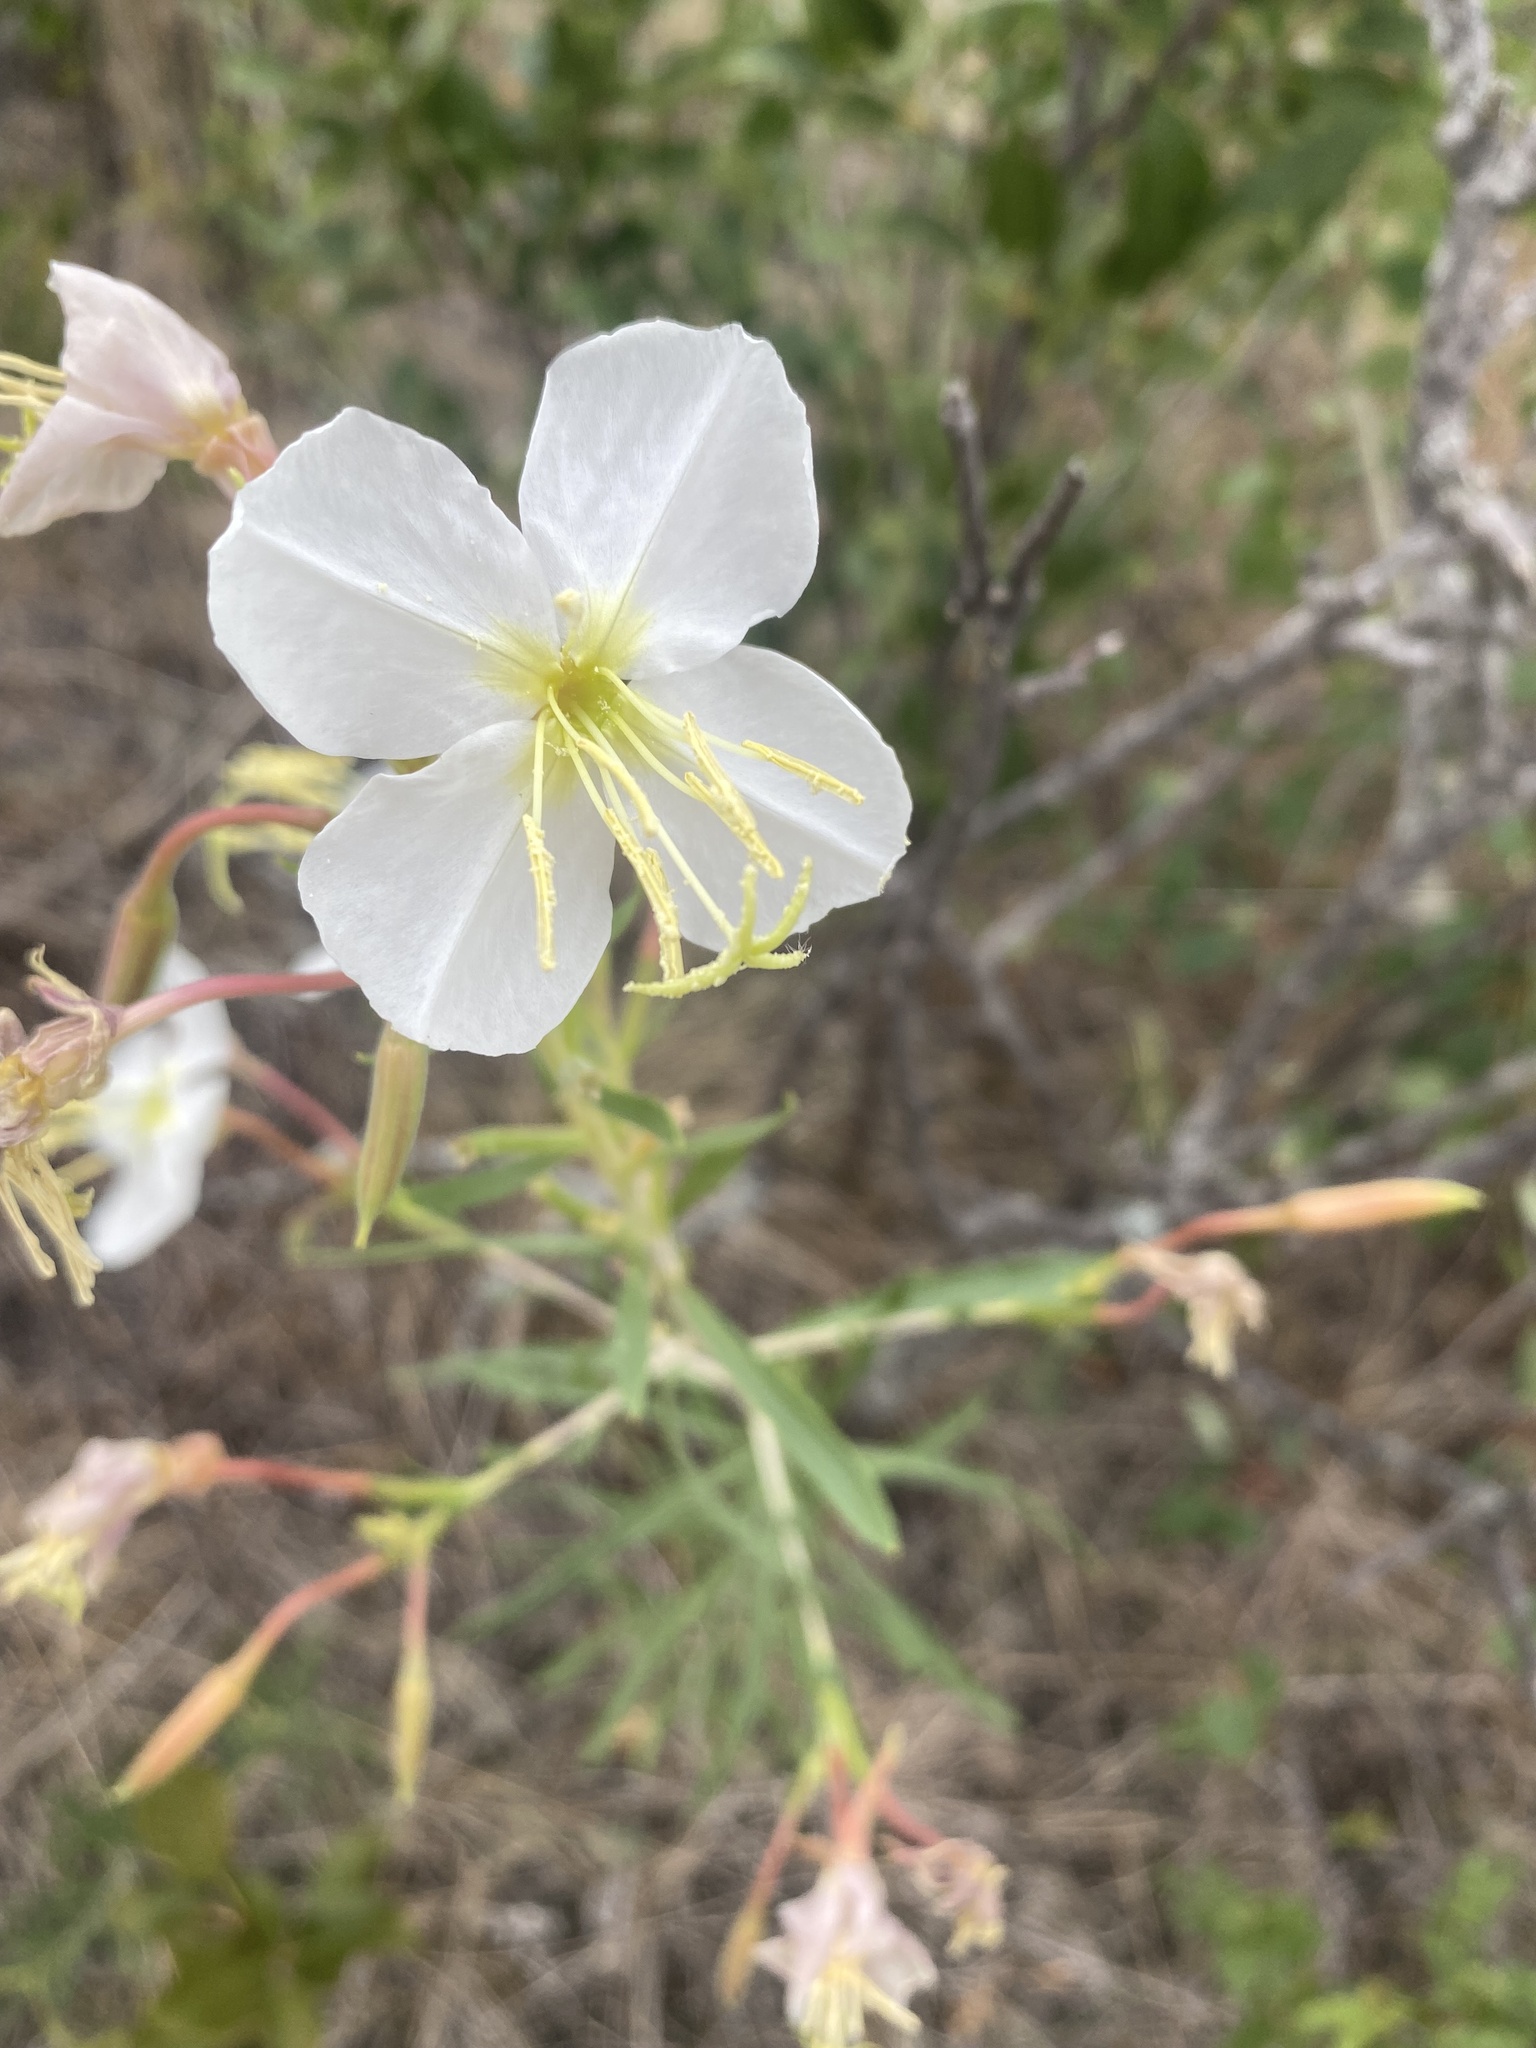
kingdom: Plantae
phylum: Tracheophyta
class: Magnoliopsida
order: Myrtales
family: Onagraceae
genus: Oenothera
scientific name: Oenothera nuttallii
